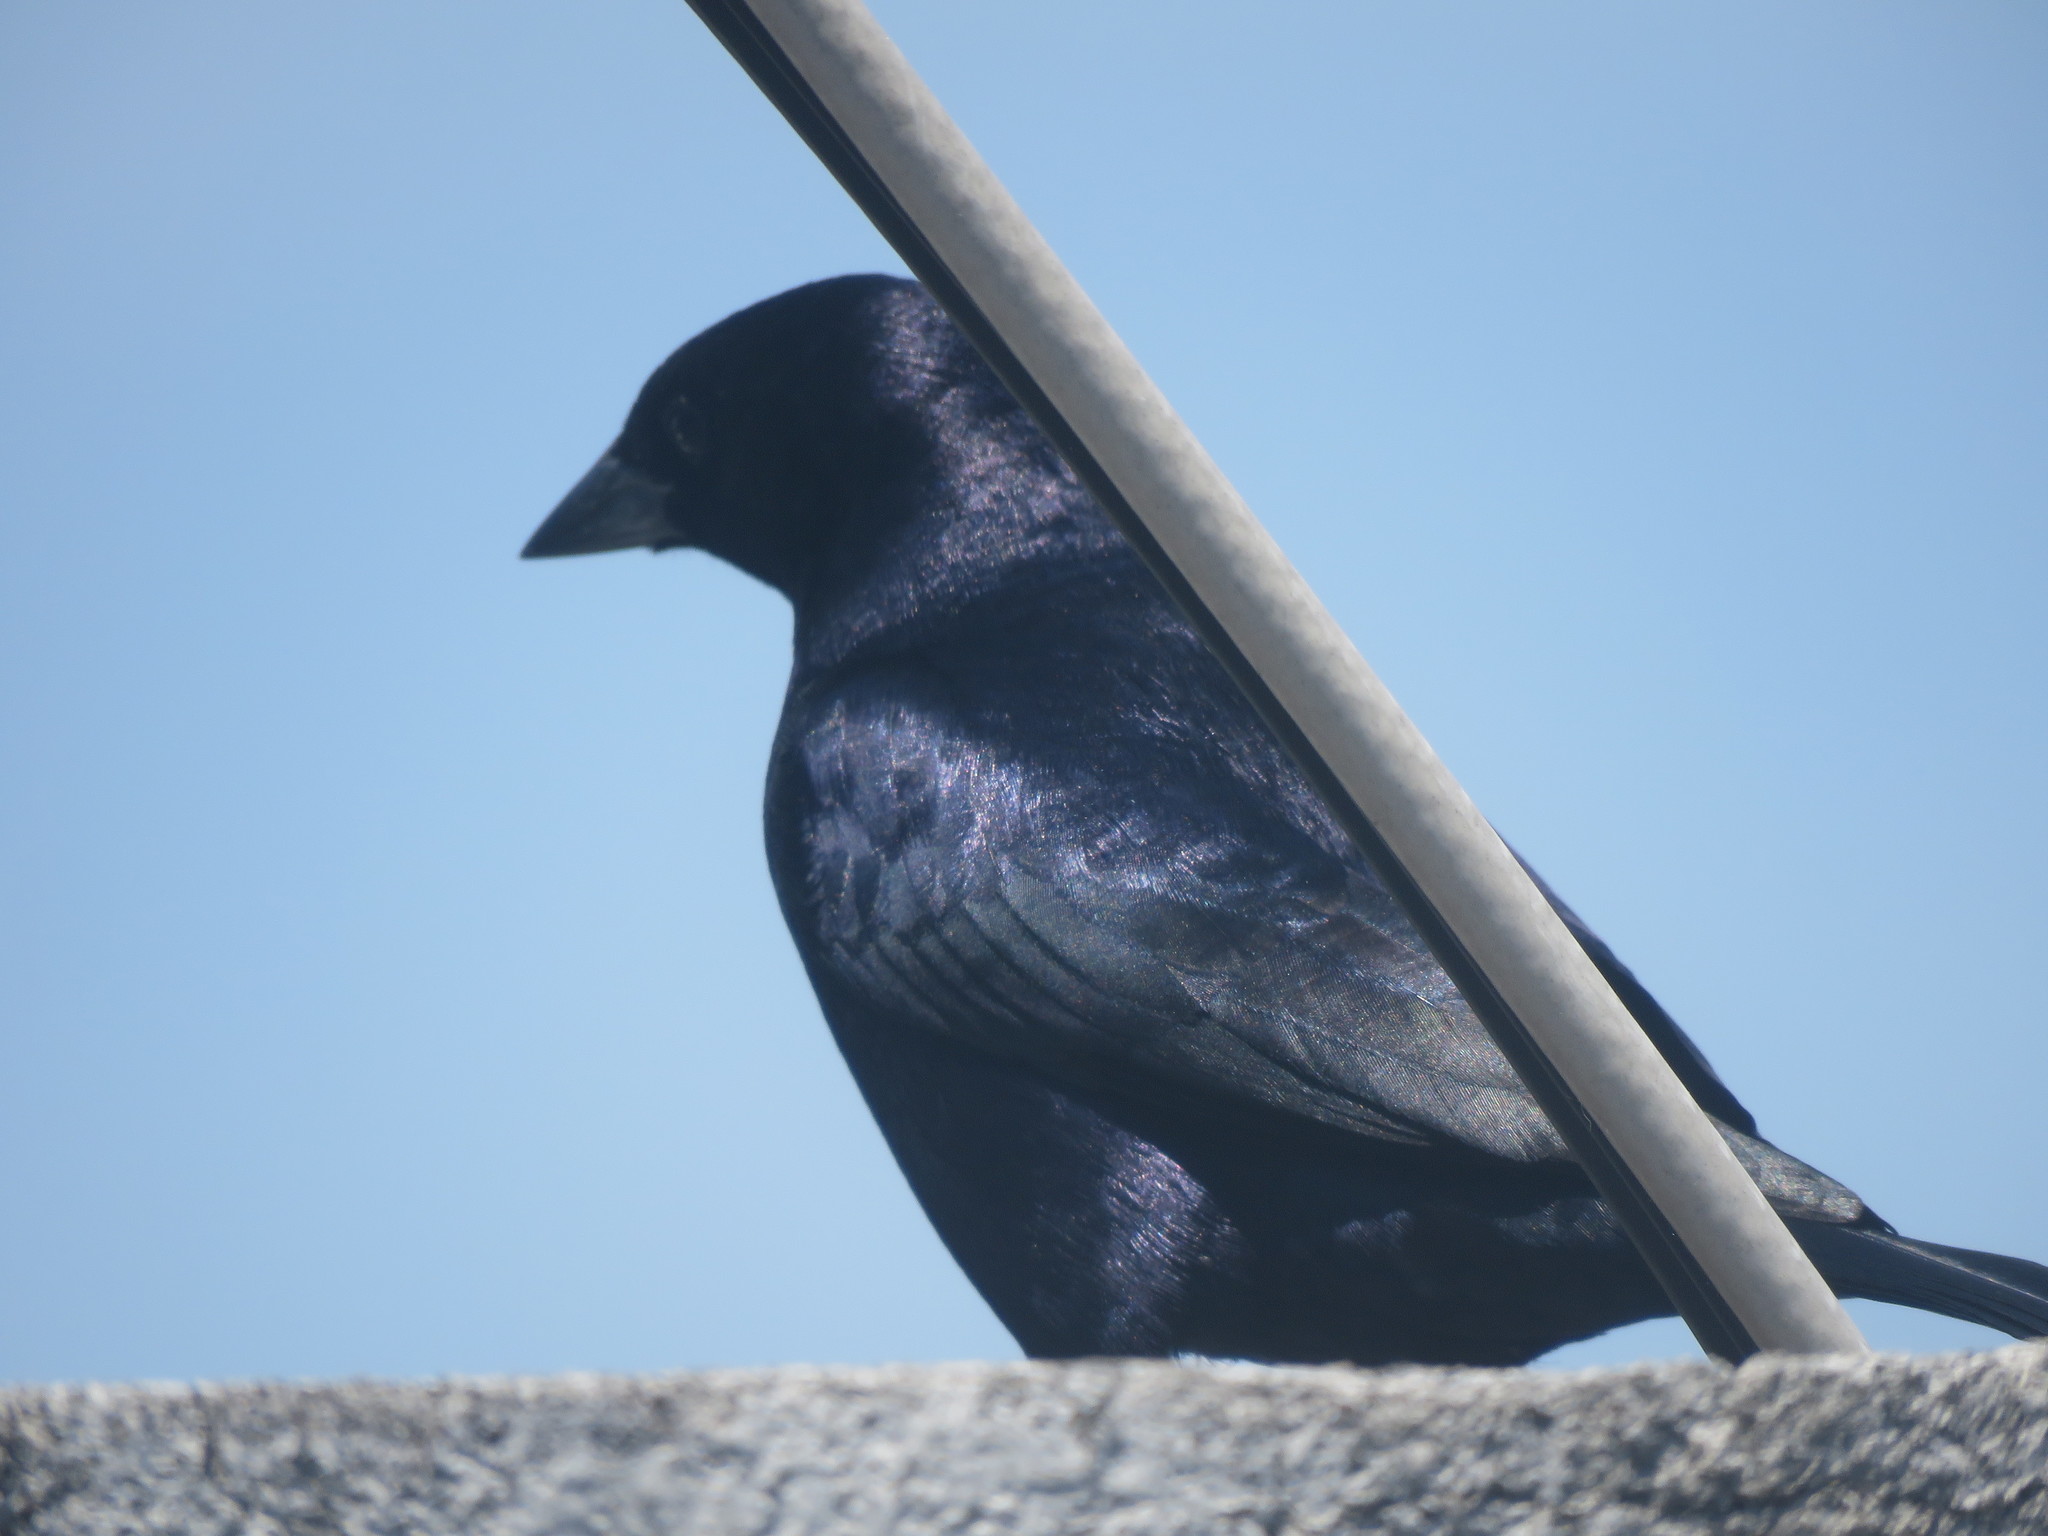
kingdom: Animalia
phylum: Chordata
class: Aves
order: Passeriformes
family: Icteridae
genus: Molothrus
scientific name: Molothrus bonariensis
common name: Shiny cowbird
